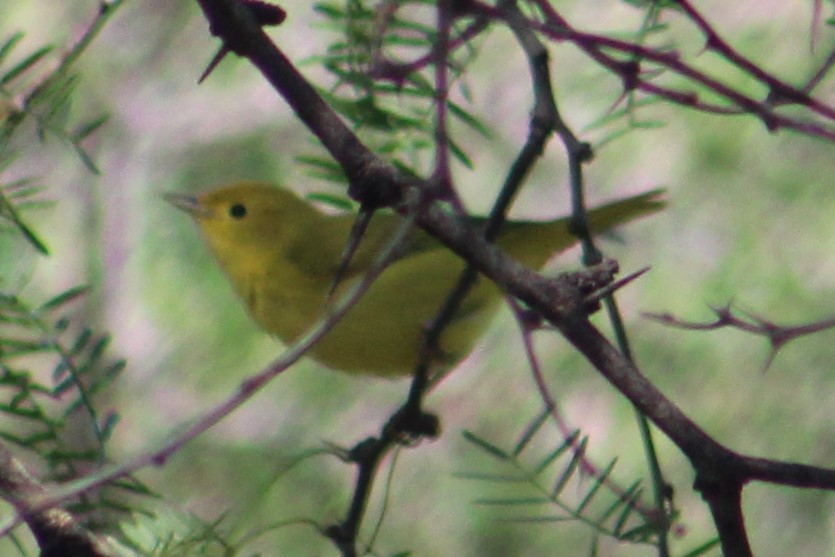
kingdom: Animalia
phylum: Chordata
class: Aves
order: Passeriformes
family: Parulidae
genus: Setophaga
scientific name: Setophaga petechia
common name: Yellow warbler
